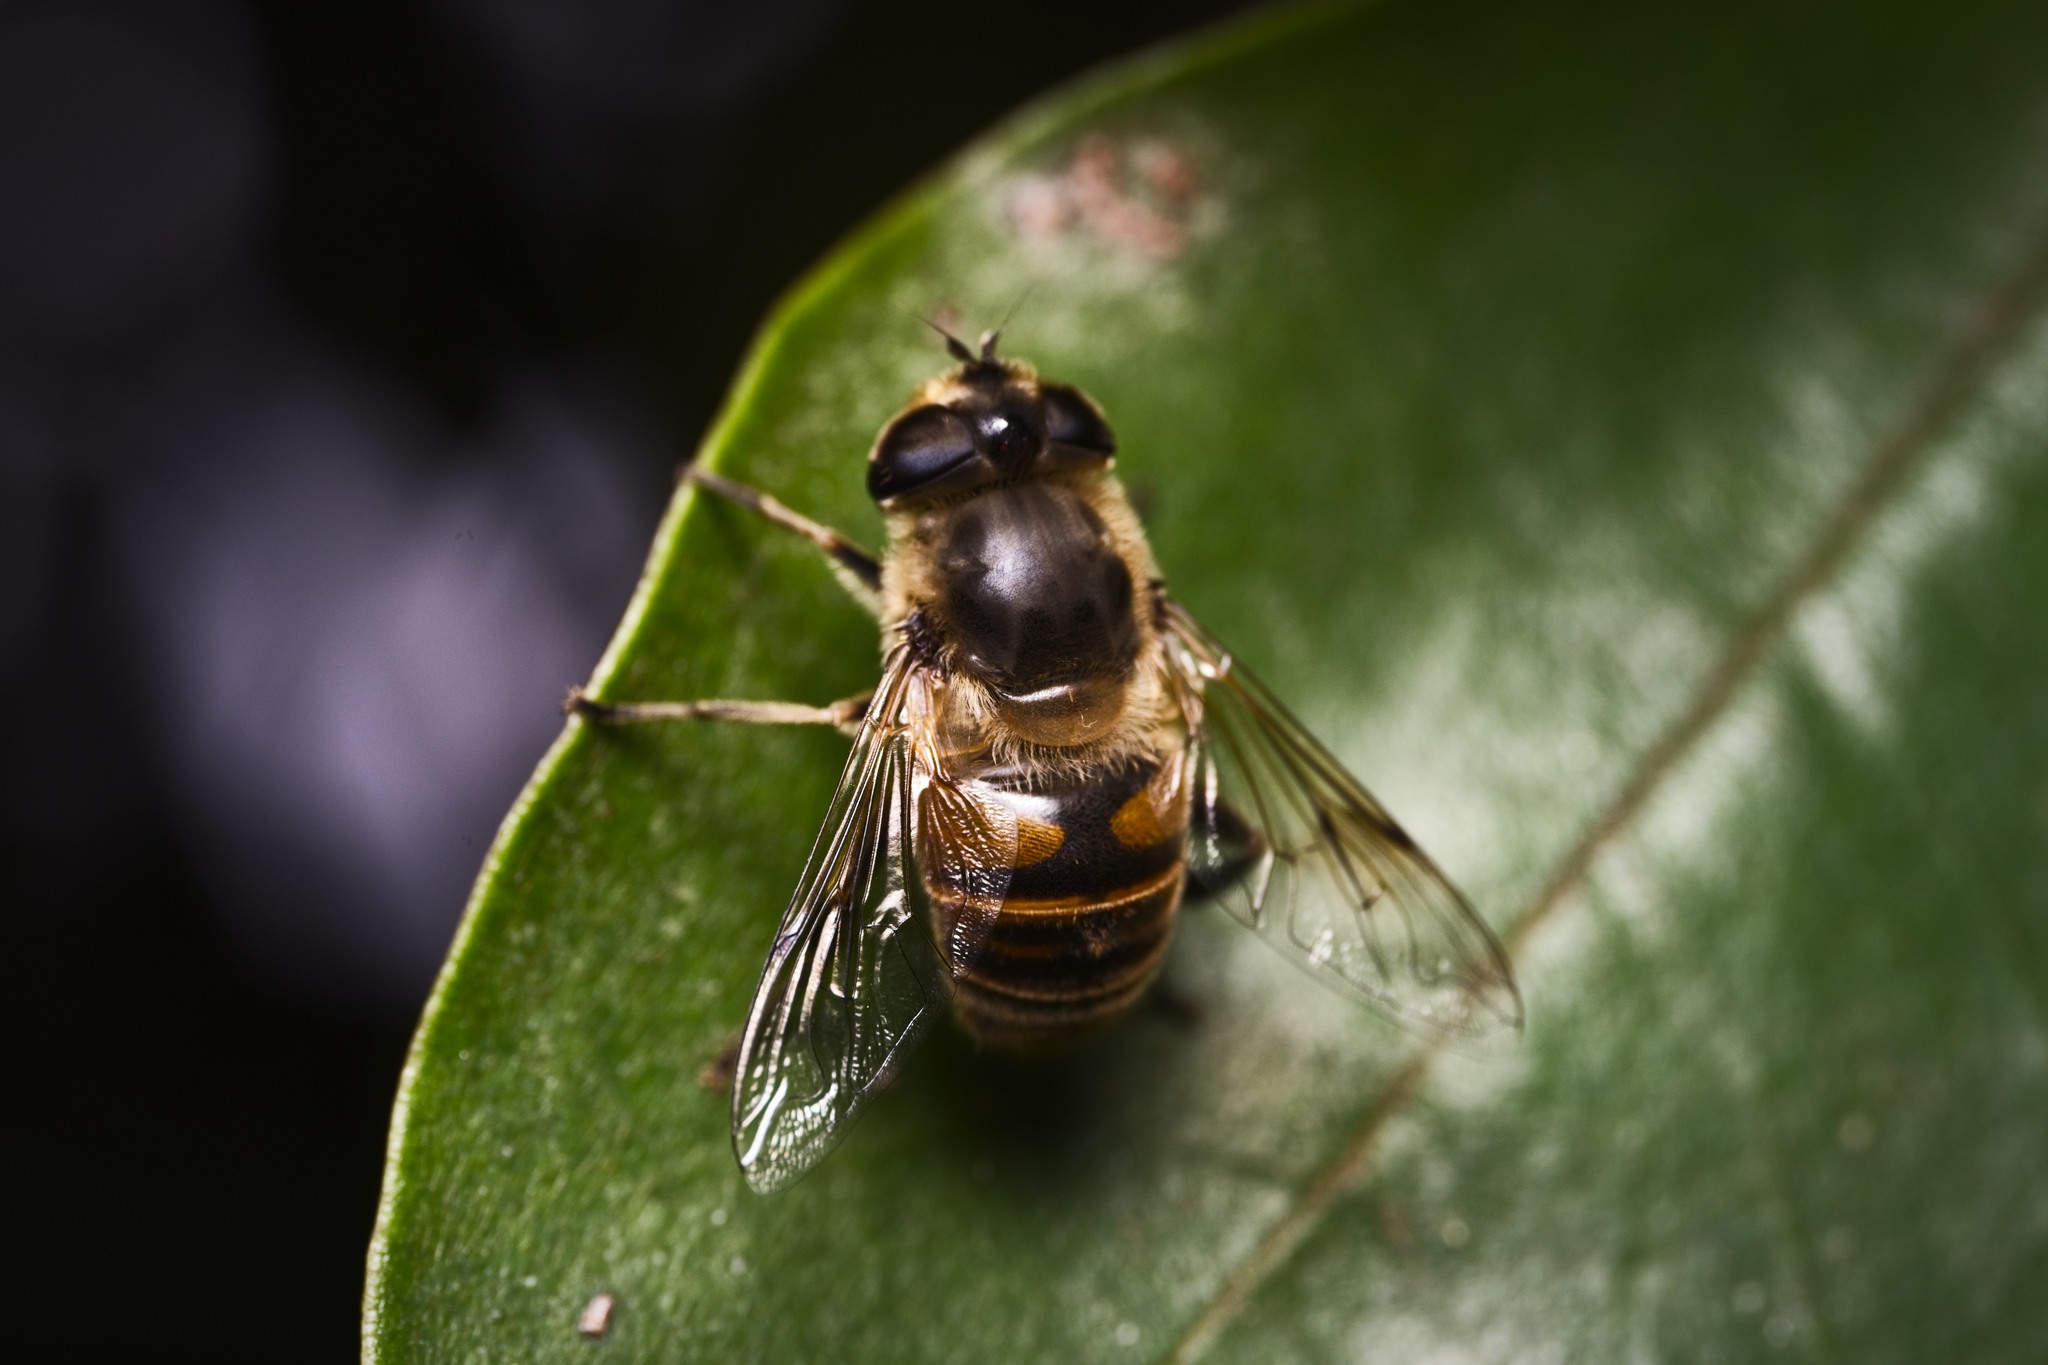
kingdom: Animalia
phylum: Arthropoda
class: Insecta
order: Diptera
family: Syrphidae
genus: Eristalis
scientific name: Eristalis tenax
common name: Drone fly
